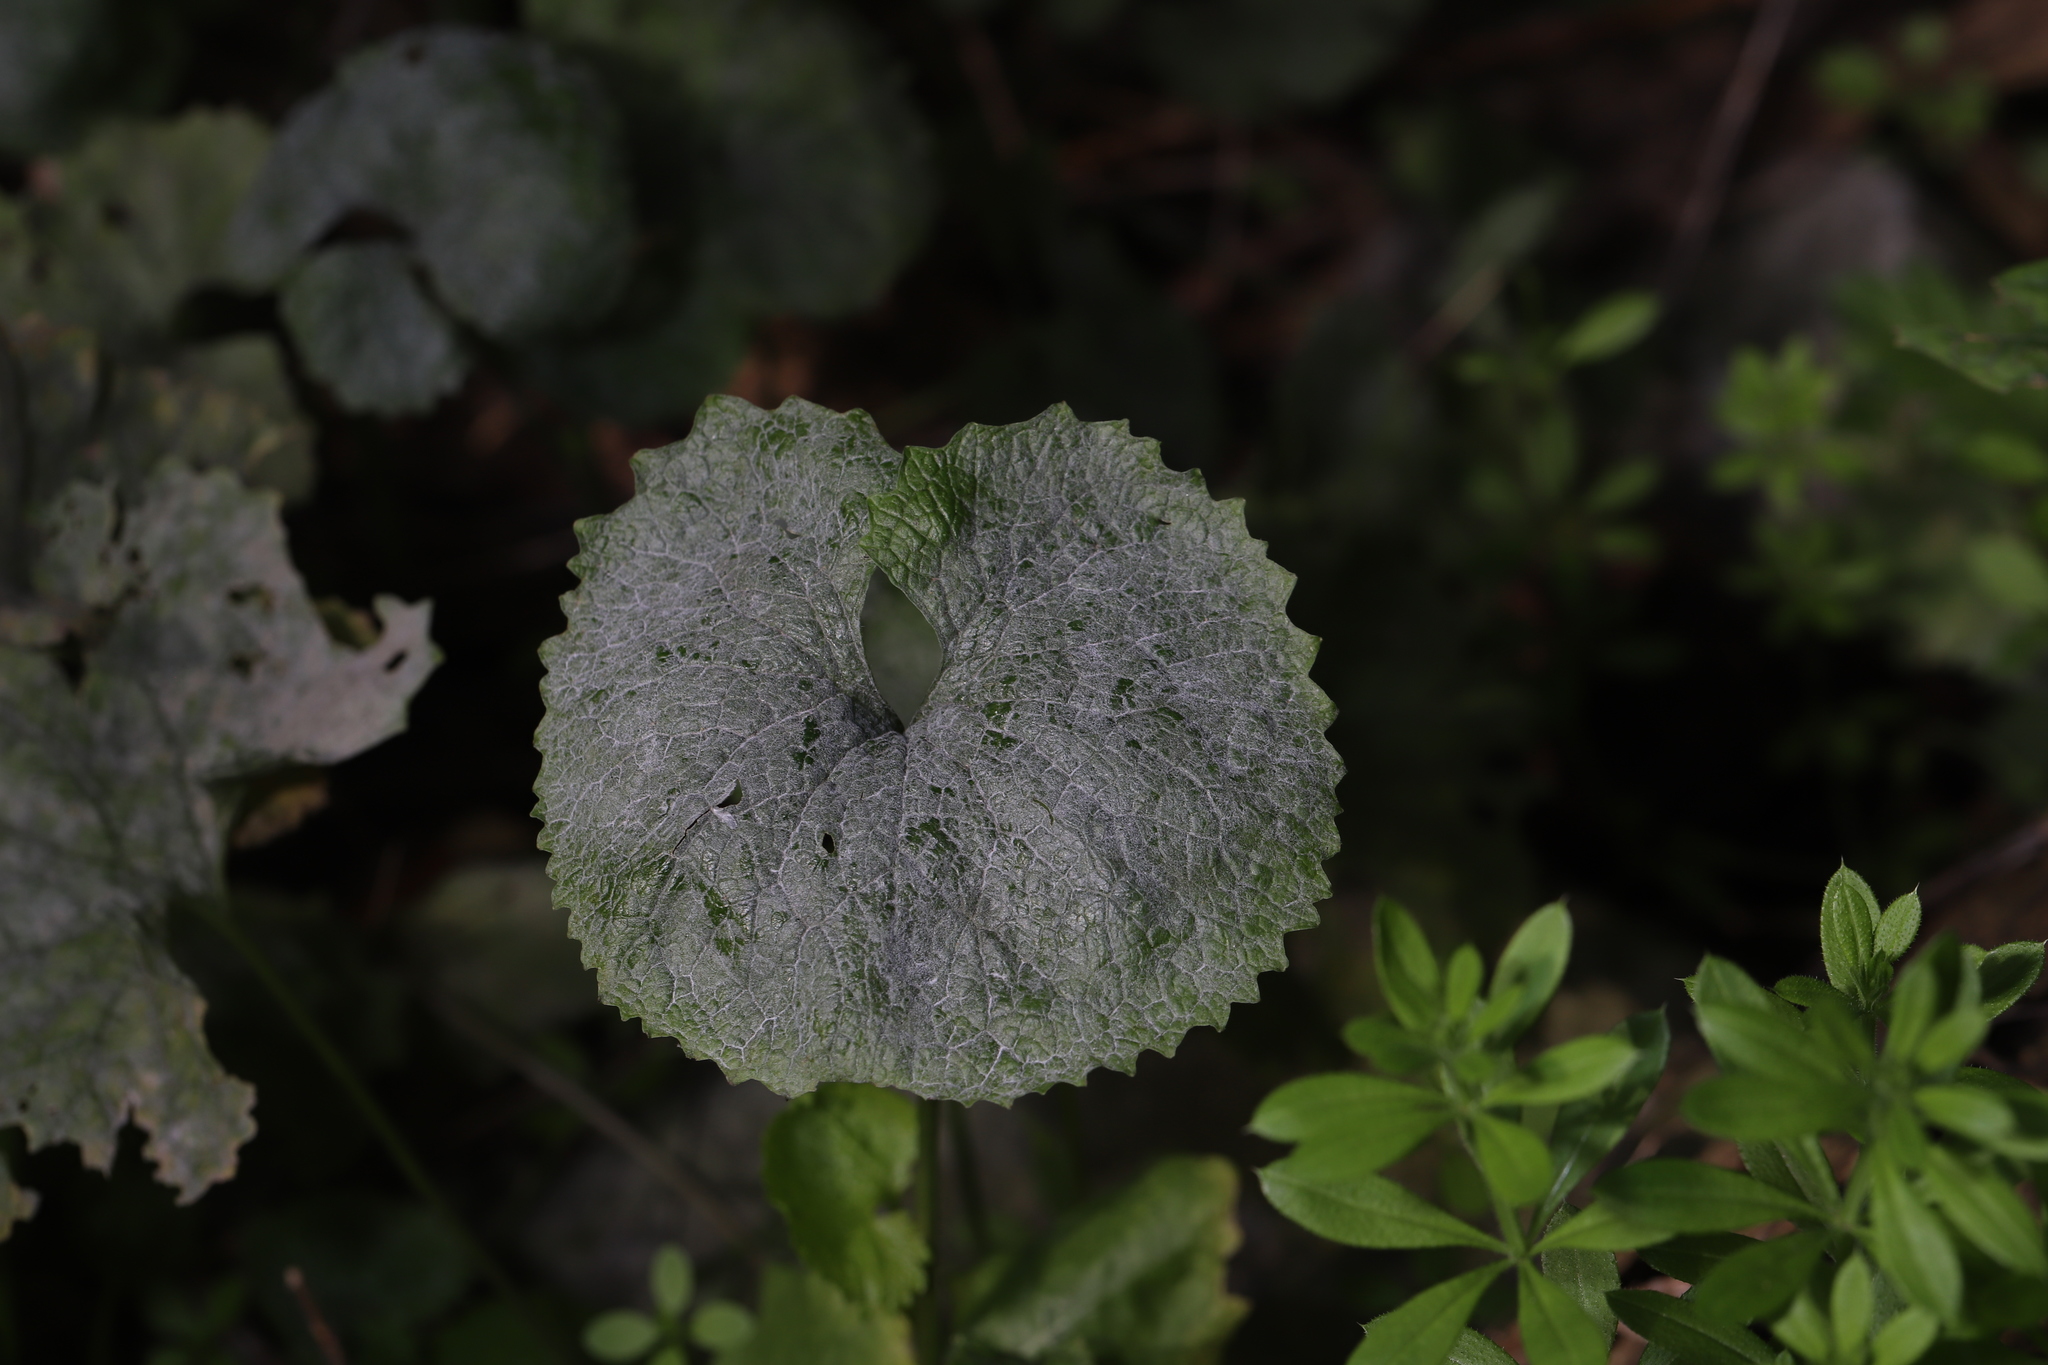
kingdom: Fungi
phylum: Ascomycota
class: Leotiomycetes
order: Helotiales
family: Erysiphaceae
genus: Erysiphe
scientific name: Erysiphe cruciferarum
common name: Brassica powdery mildew
